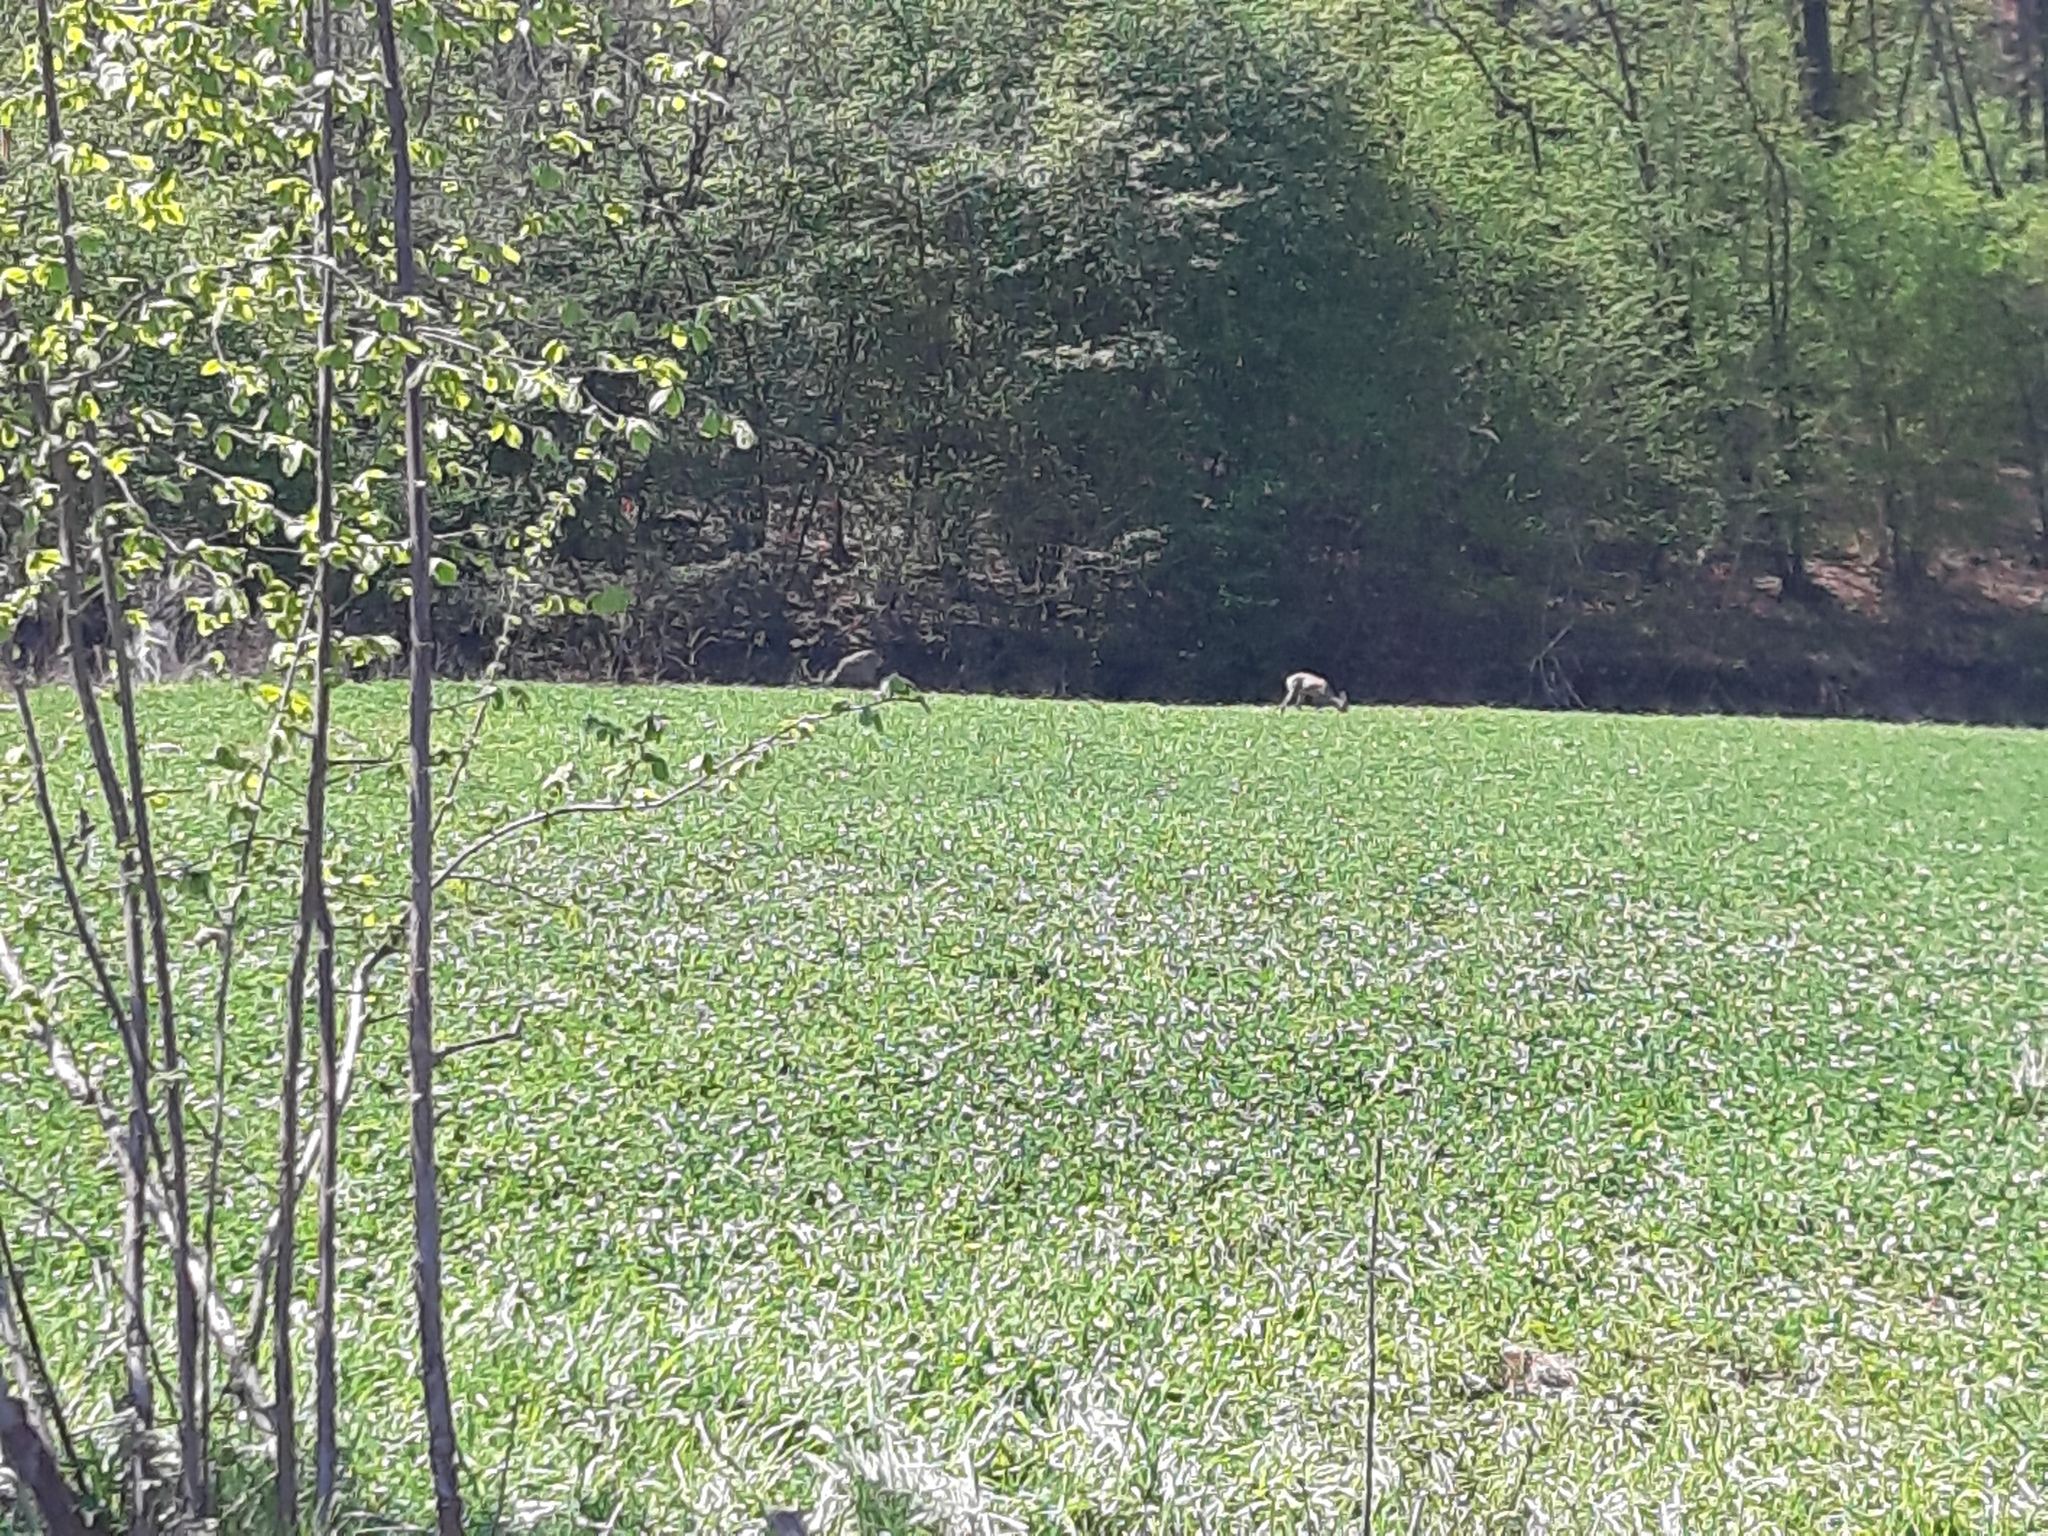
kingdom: Animalia
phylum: Chordata
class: Mammalia
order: Artiodactyla
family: Cervidae
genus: Capreolus
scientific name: Capreolus capreolus
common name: Western roe deer
